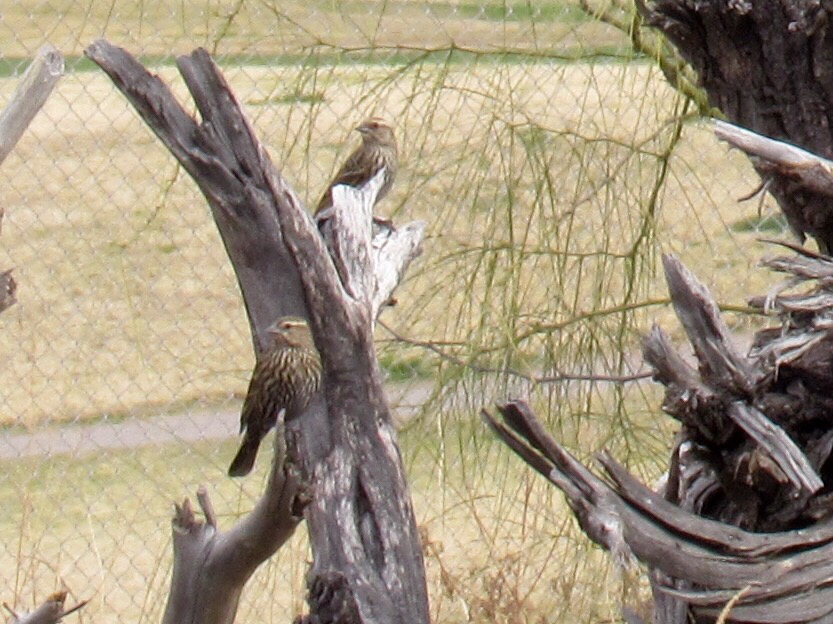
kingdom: Animalia
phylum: Chordata
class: Aves
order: Passeriformes
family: Icteridae
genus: Agelaius
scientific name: Agelaius phoeniceus
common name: Red-winged blackbird
